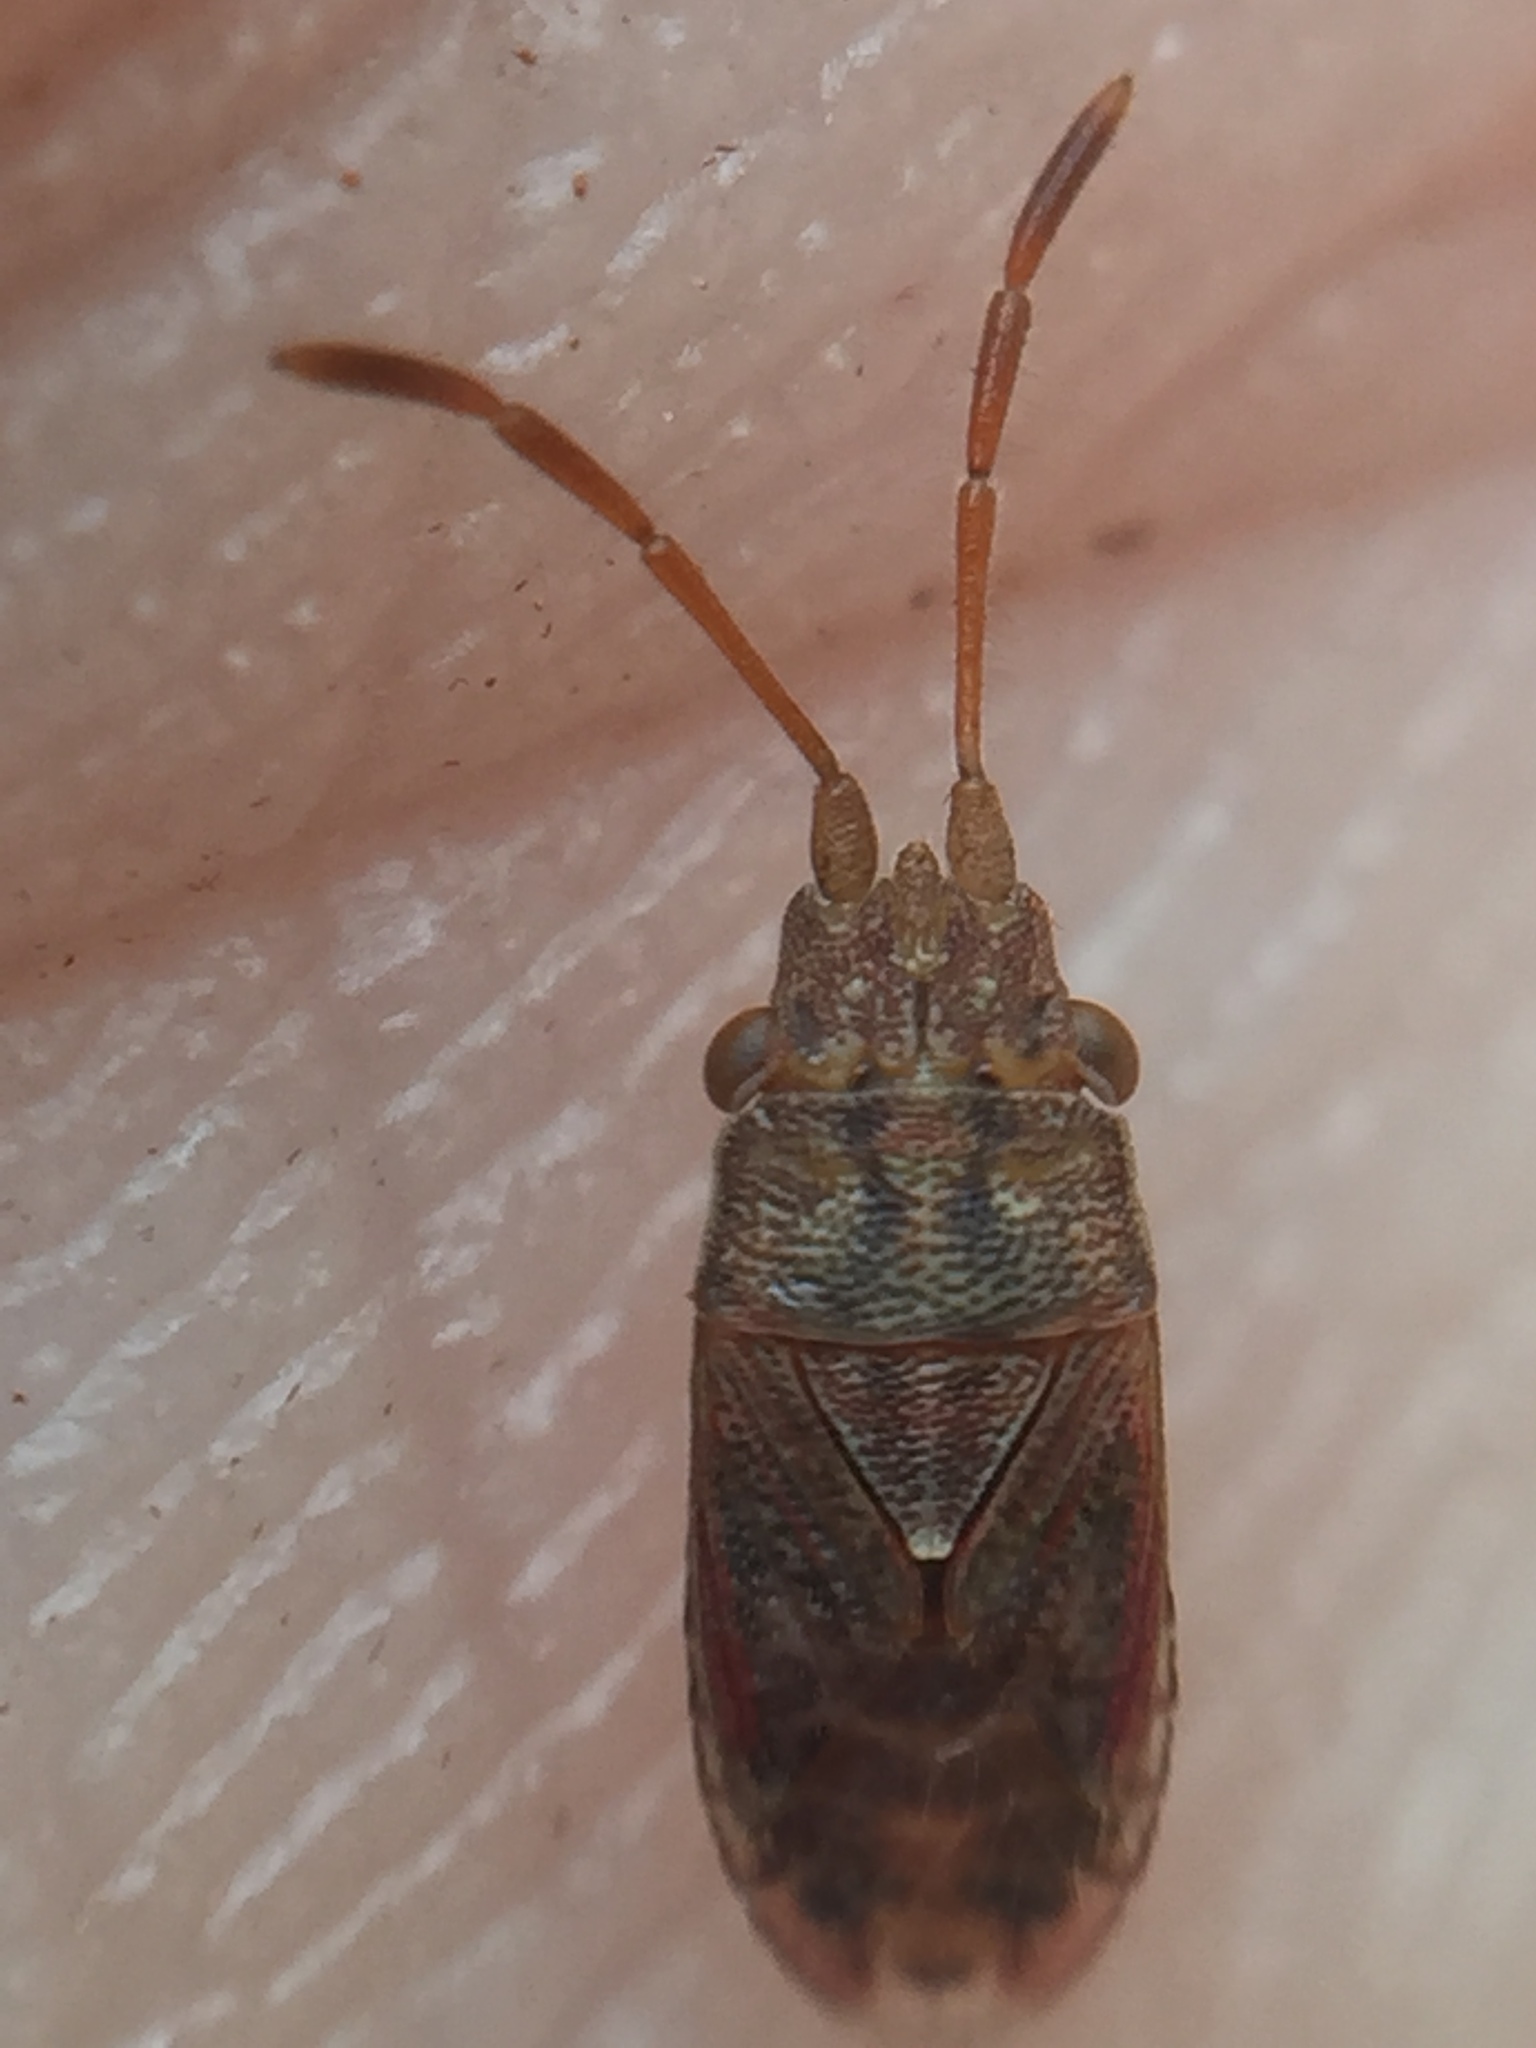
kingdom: Animalia
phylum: Arthropoda
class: Insecta
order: Hemiptera
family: Meschiidae
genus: Meschia
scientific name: Meschia barrowensis
